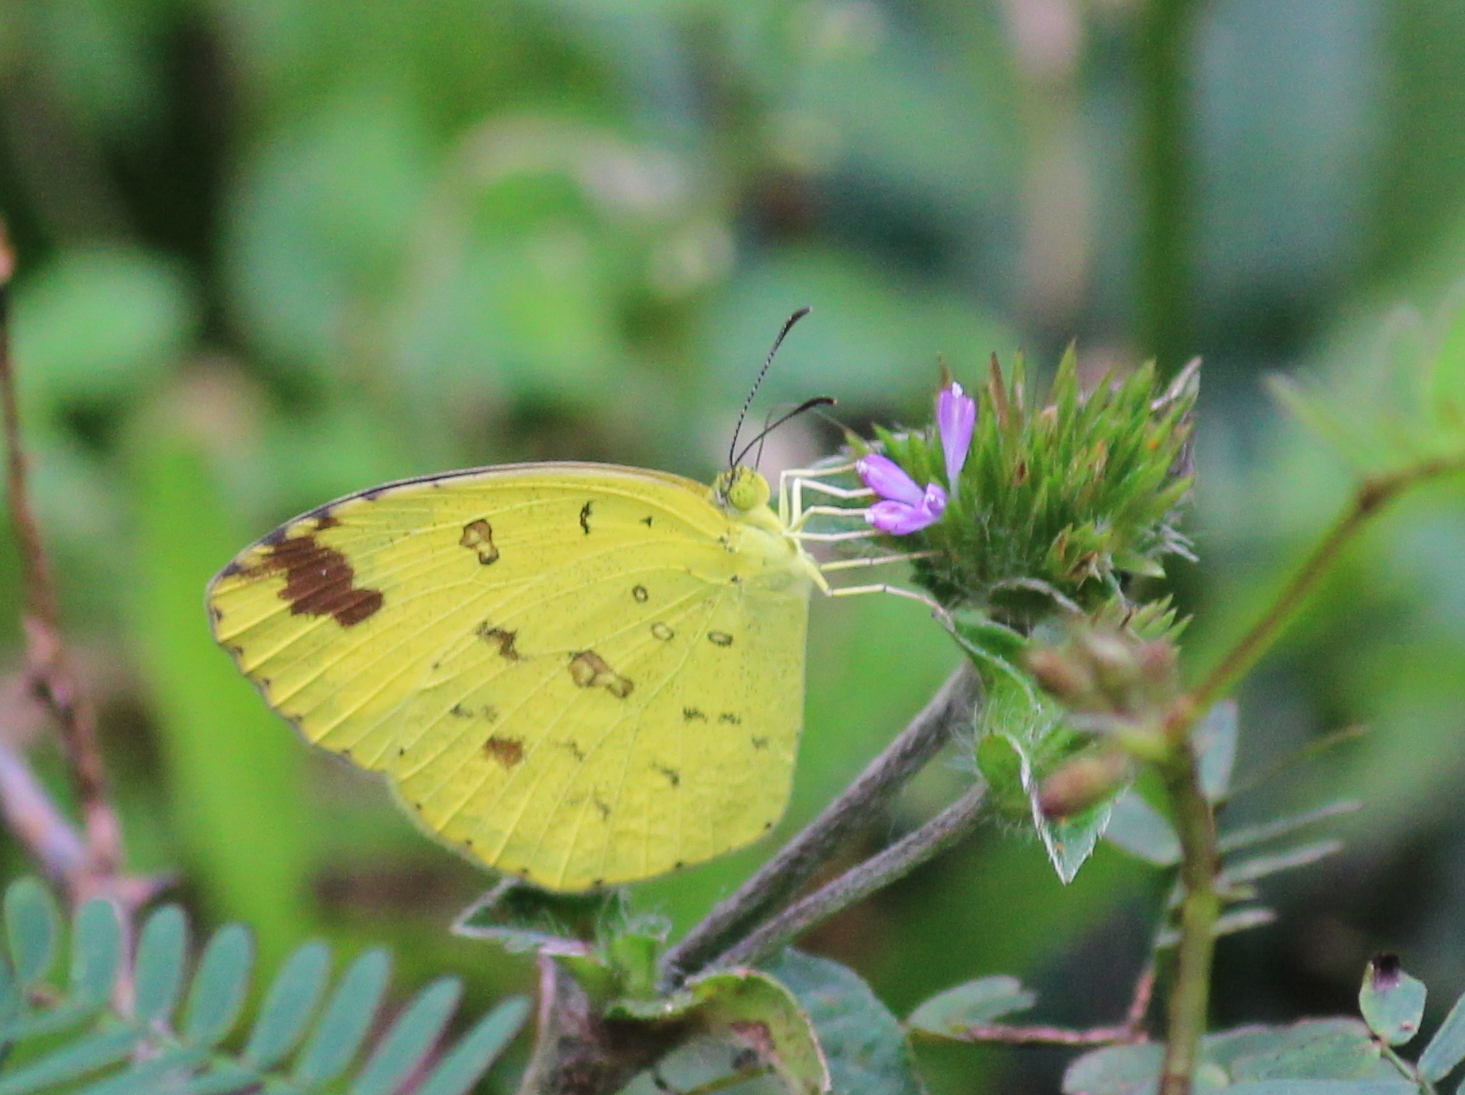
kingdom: Animalia
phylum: Arthropoda
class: Insecta
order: Lepidoptera
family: Pieridae
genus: Eurema
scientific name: Eurema hecabe
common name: Pale grass yellow
